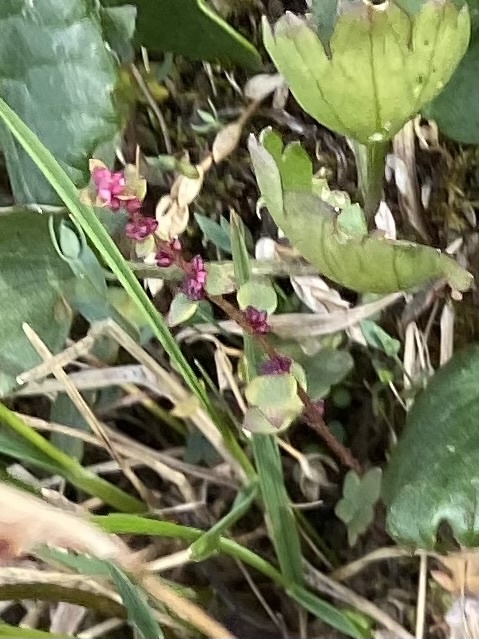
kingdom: Plantae
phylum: Tracheophyta
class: Magnoliopsida
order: Saxifragales
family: Saxifragaceae
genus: Saxifraga
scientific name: Saxifraga cernua
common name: Drooping saxifrage
